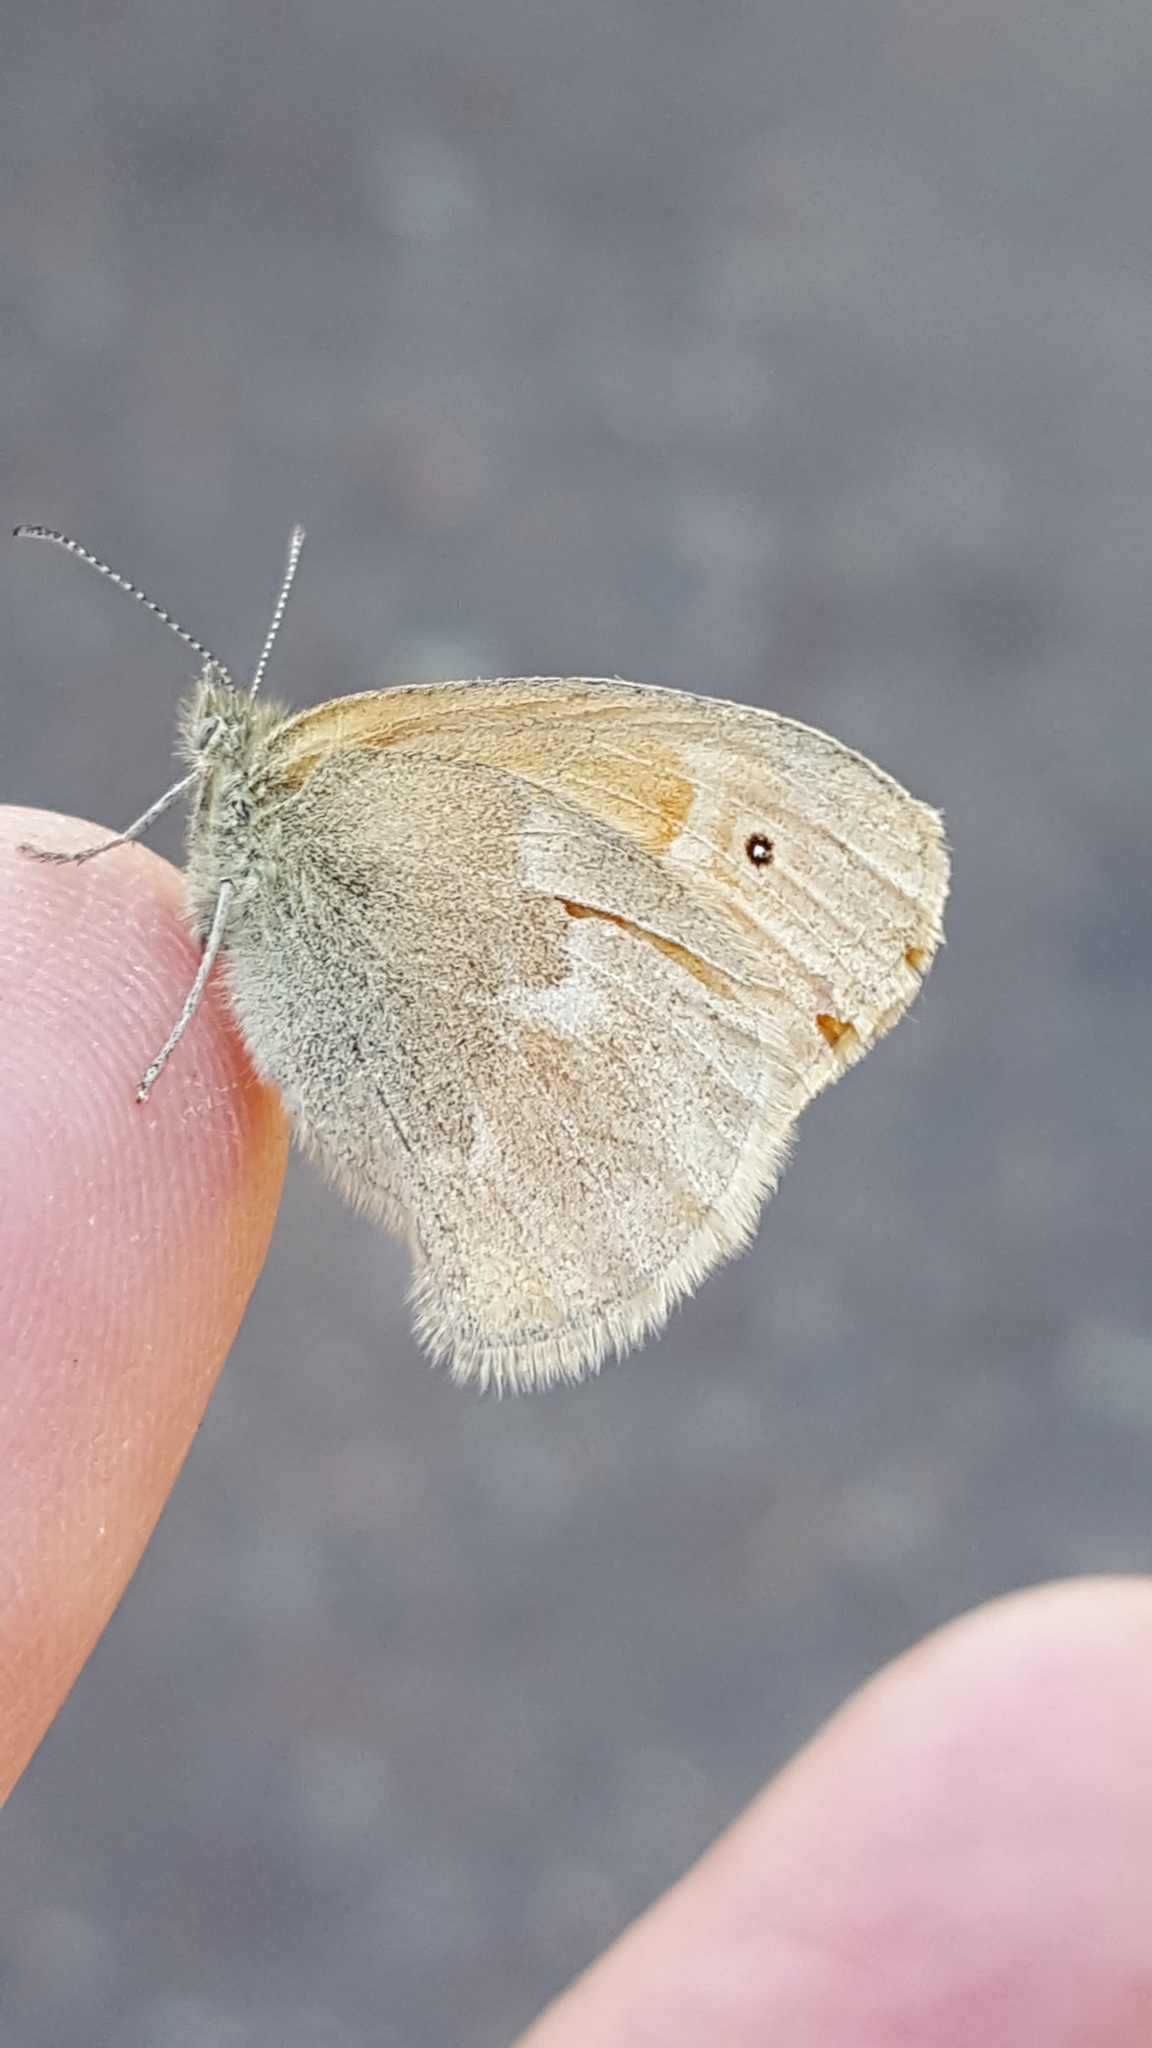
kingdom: Animalia
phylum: Arthropoda
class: Insecta
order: Lepidoptera
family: Nymphalidae
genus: Coenonympha
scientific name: Coenonympha california
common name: Common ringlet
